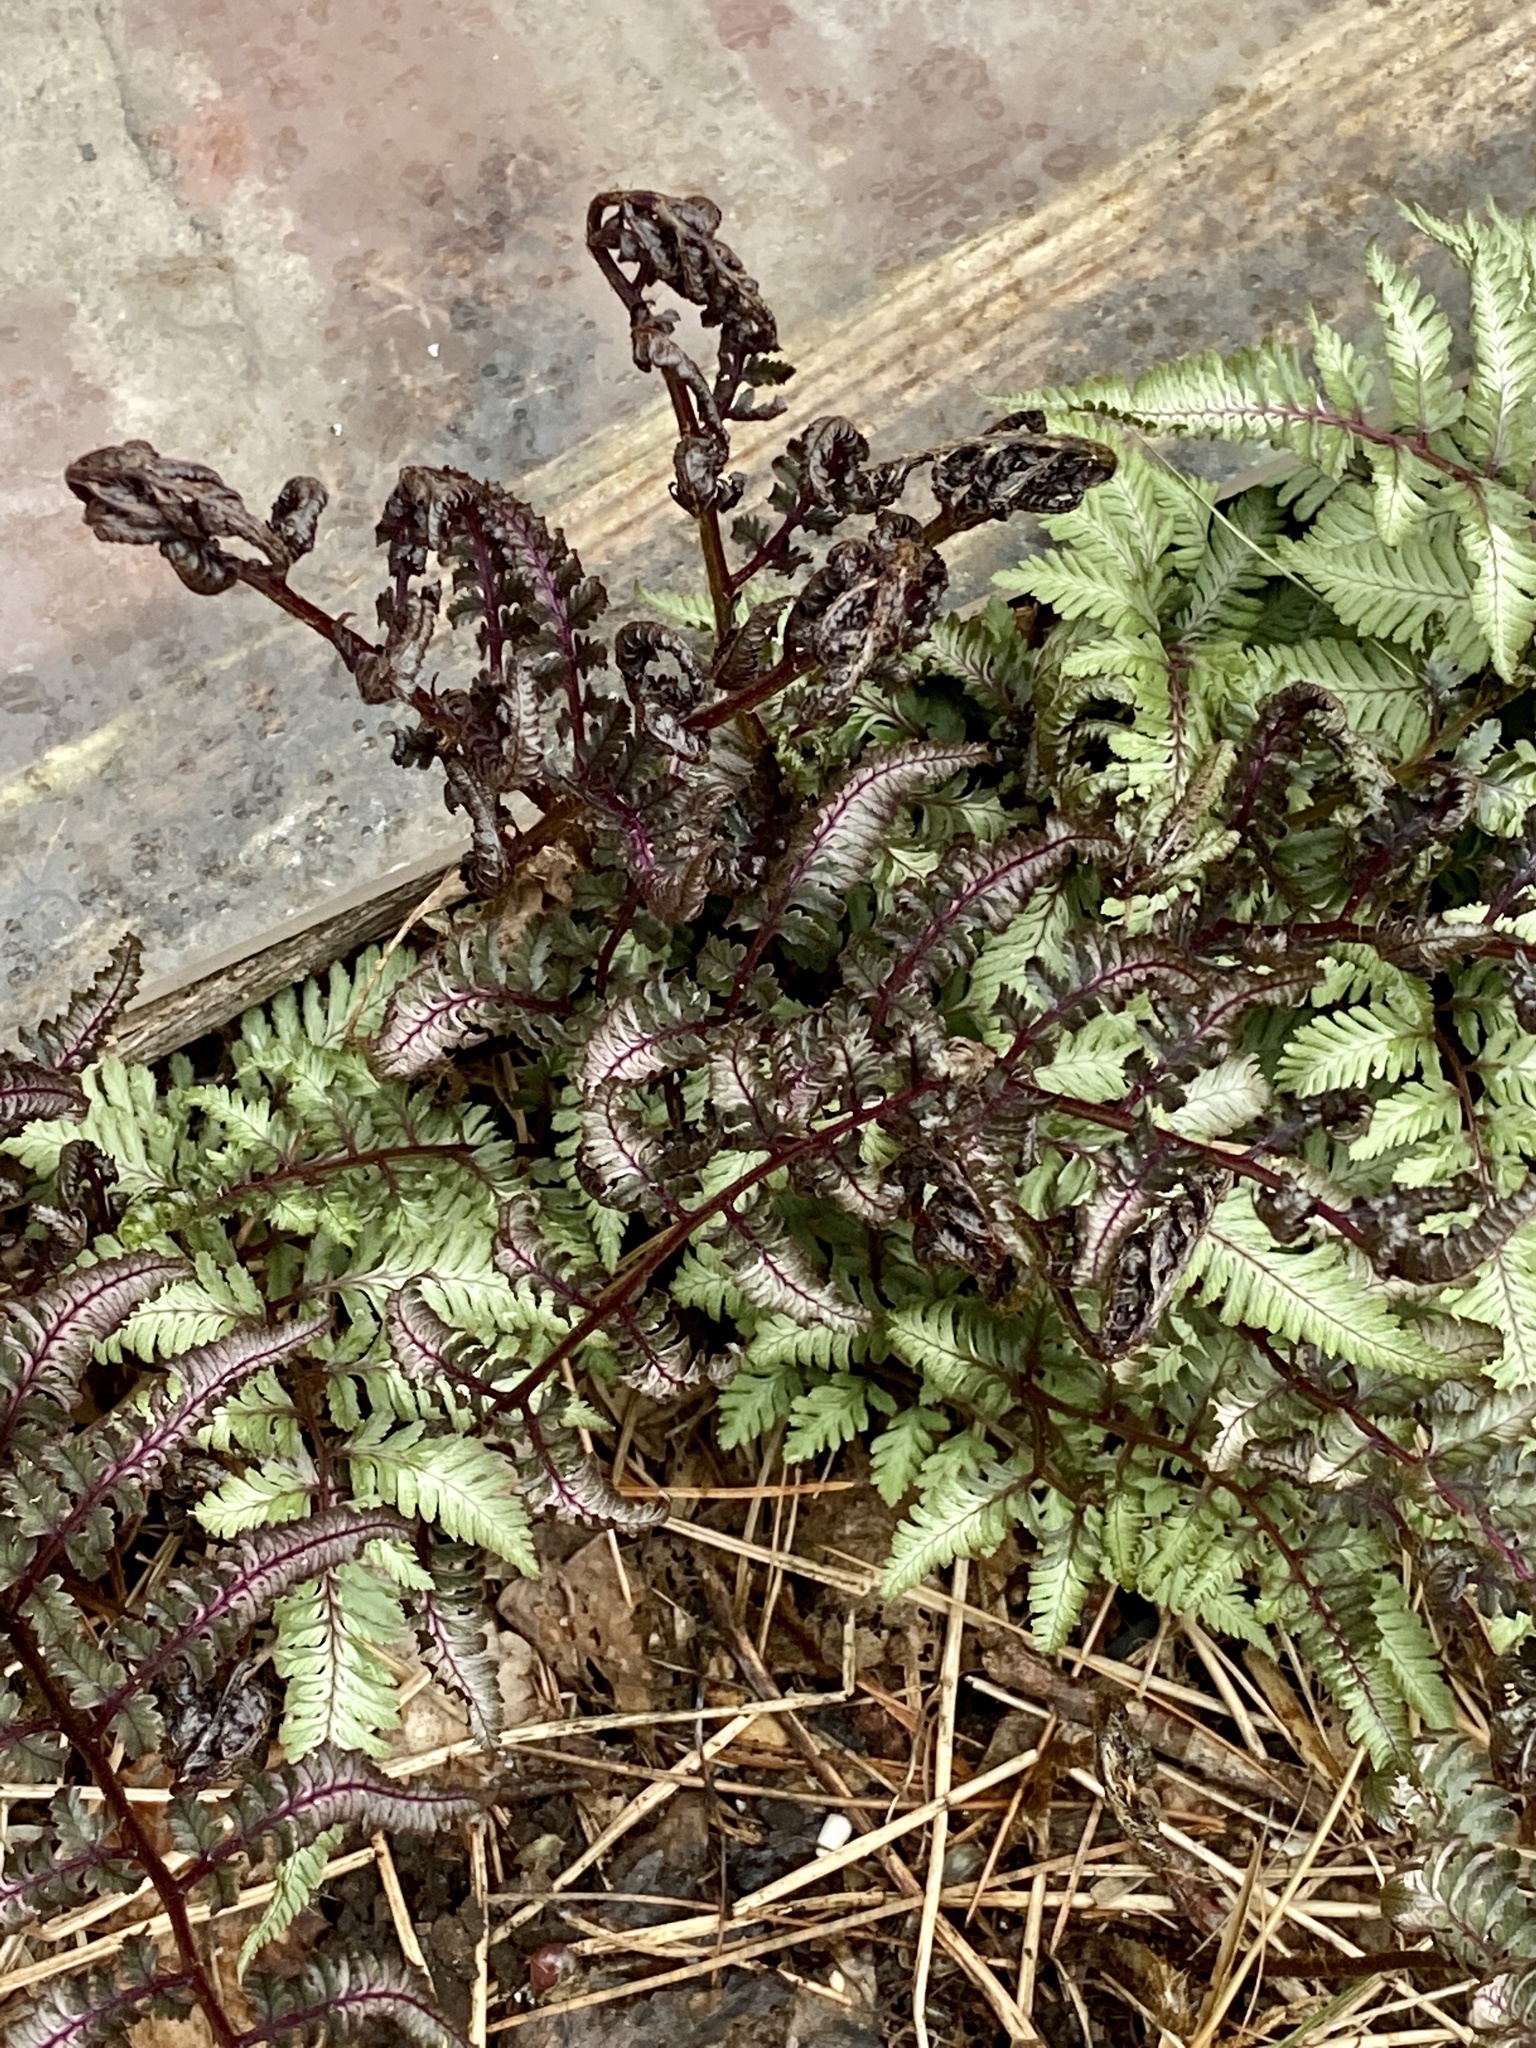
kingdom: Plantae
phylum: Tracheophyta
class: Polypodiopsida
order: Polypodiales
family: Athyriaceae
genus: Anisocampium
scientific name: Anisocampium niponicum
